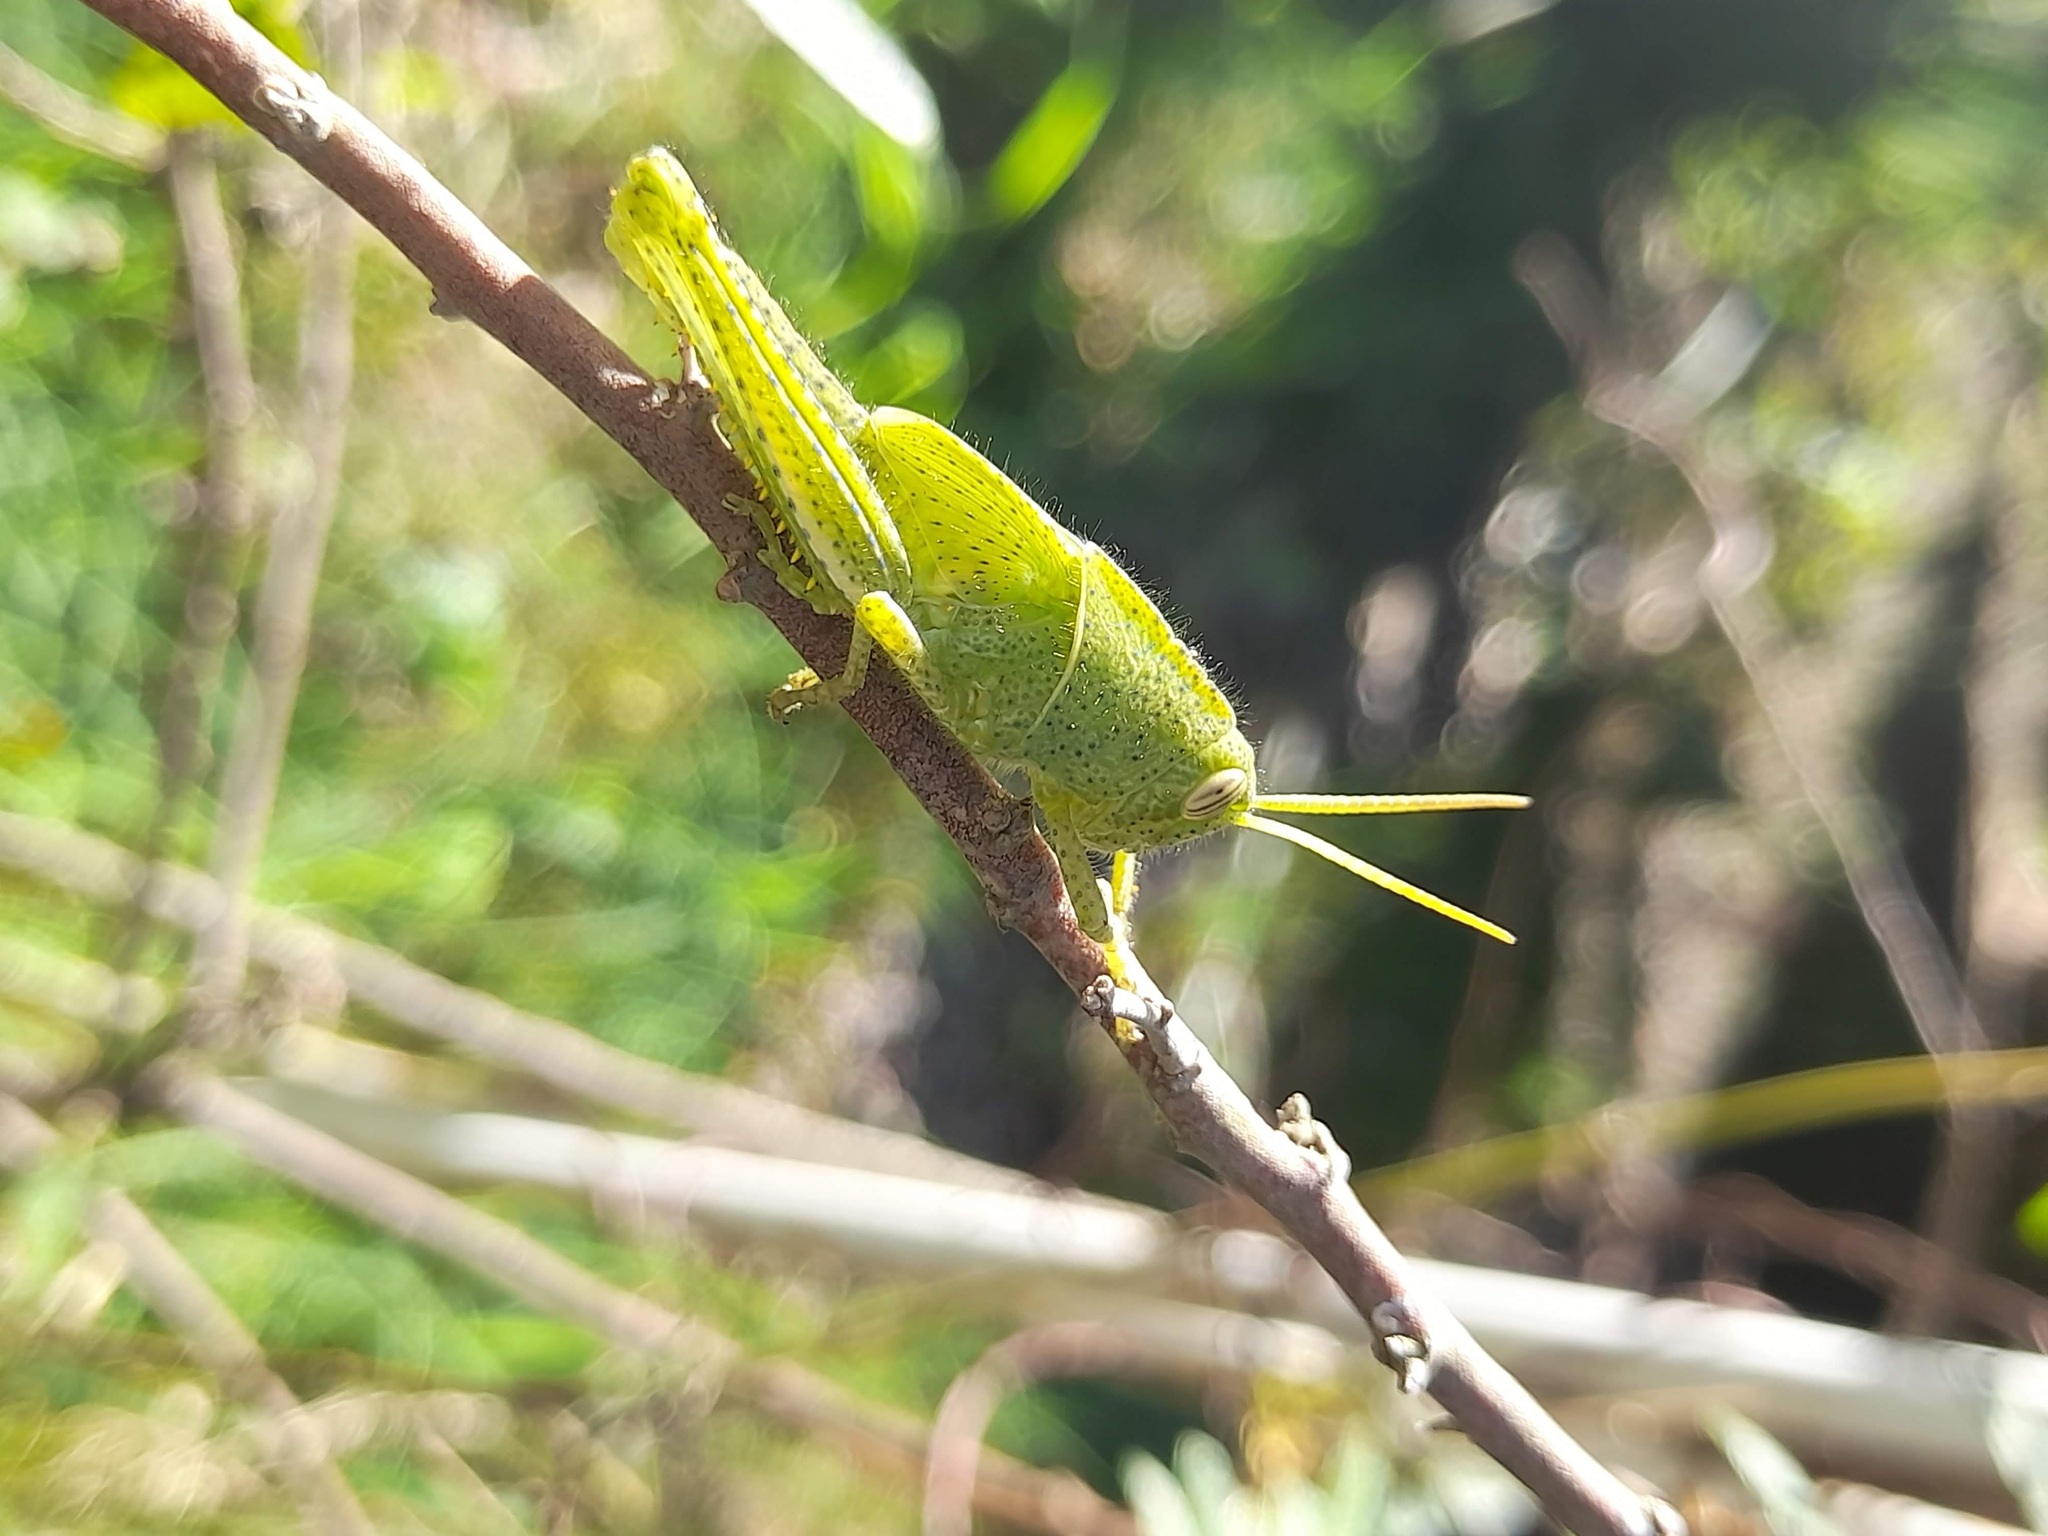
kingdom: Animalia
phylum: Arthropoda
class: Insecta
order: Orthoptera
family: Acrididae
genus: Schistocerca
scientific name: Schistocerca flavofasciata
